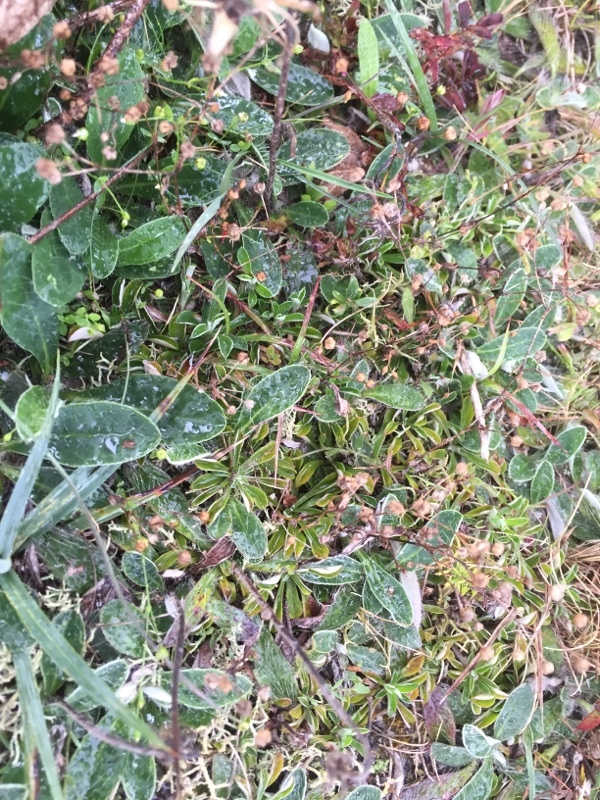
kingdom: Plantae
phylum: Tracheophyta
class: Magnoliopsida
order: Asterales
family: Asteraceae
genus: Antennaria
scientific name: Antennaria dioica
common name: Mountain everlasting
